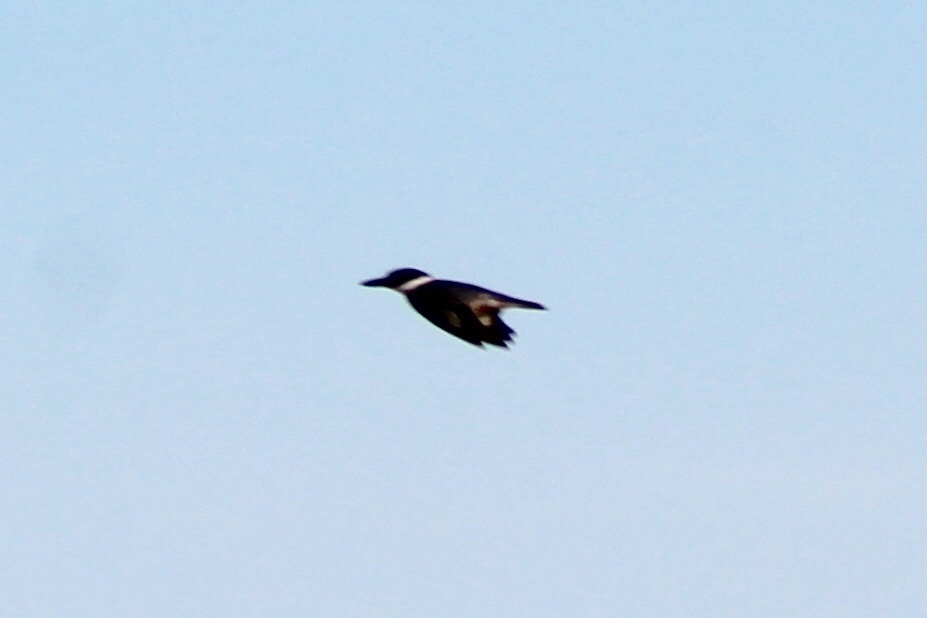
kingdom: Animalia
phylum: Chordata
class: Aves
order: Coraciiformes
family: Alcedinidae
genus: Megaceryle
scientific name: Megaceryle alcyon
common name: Belted kingfisher
